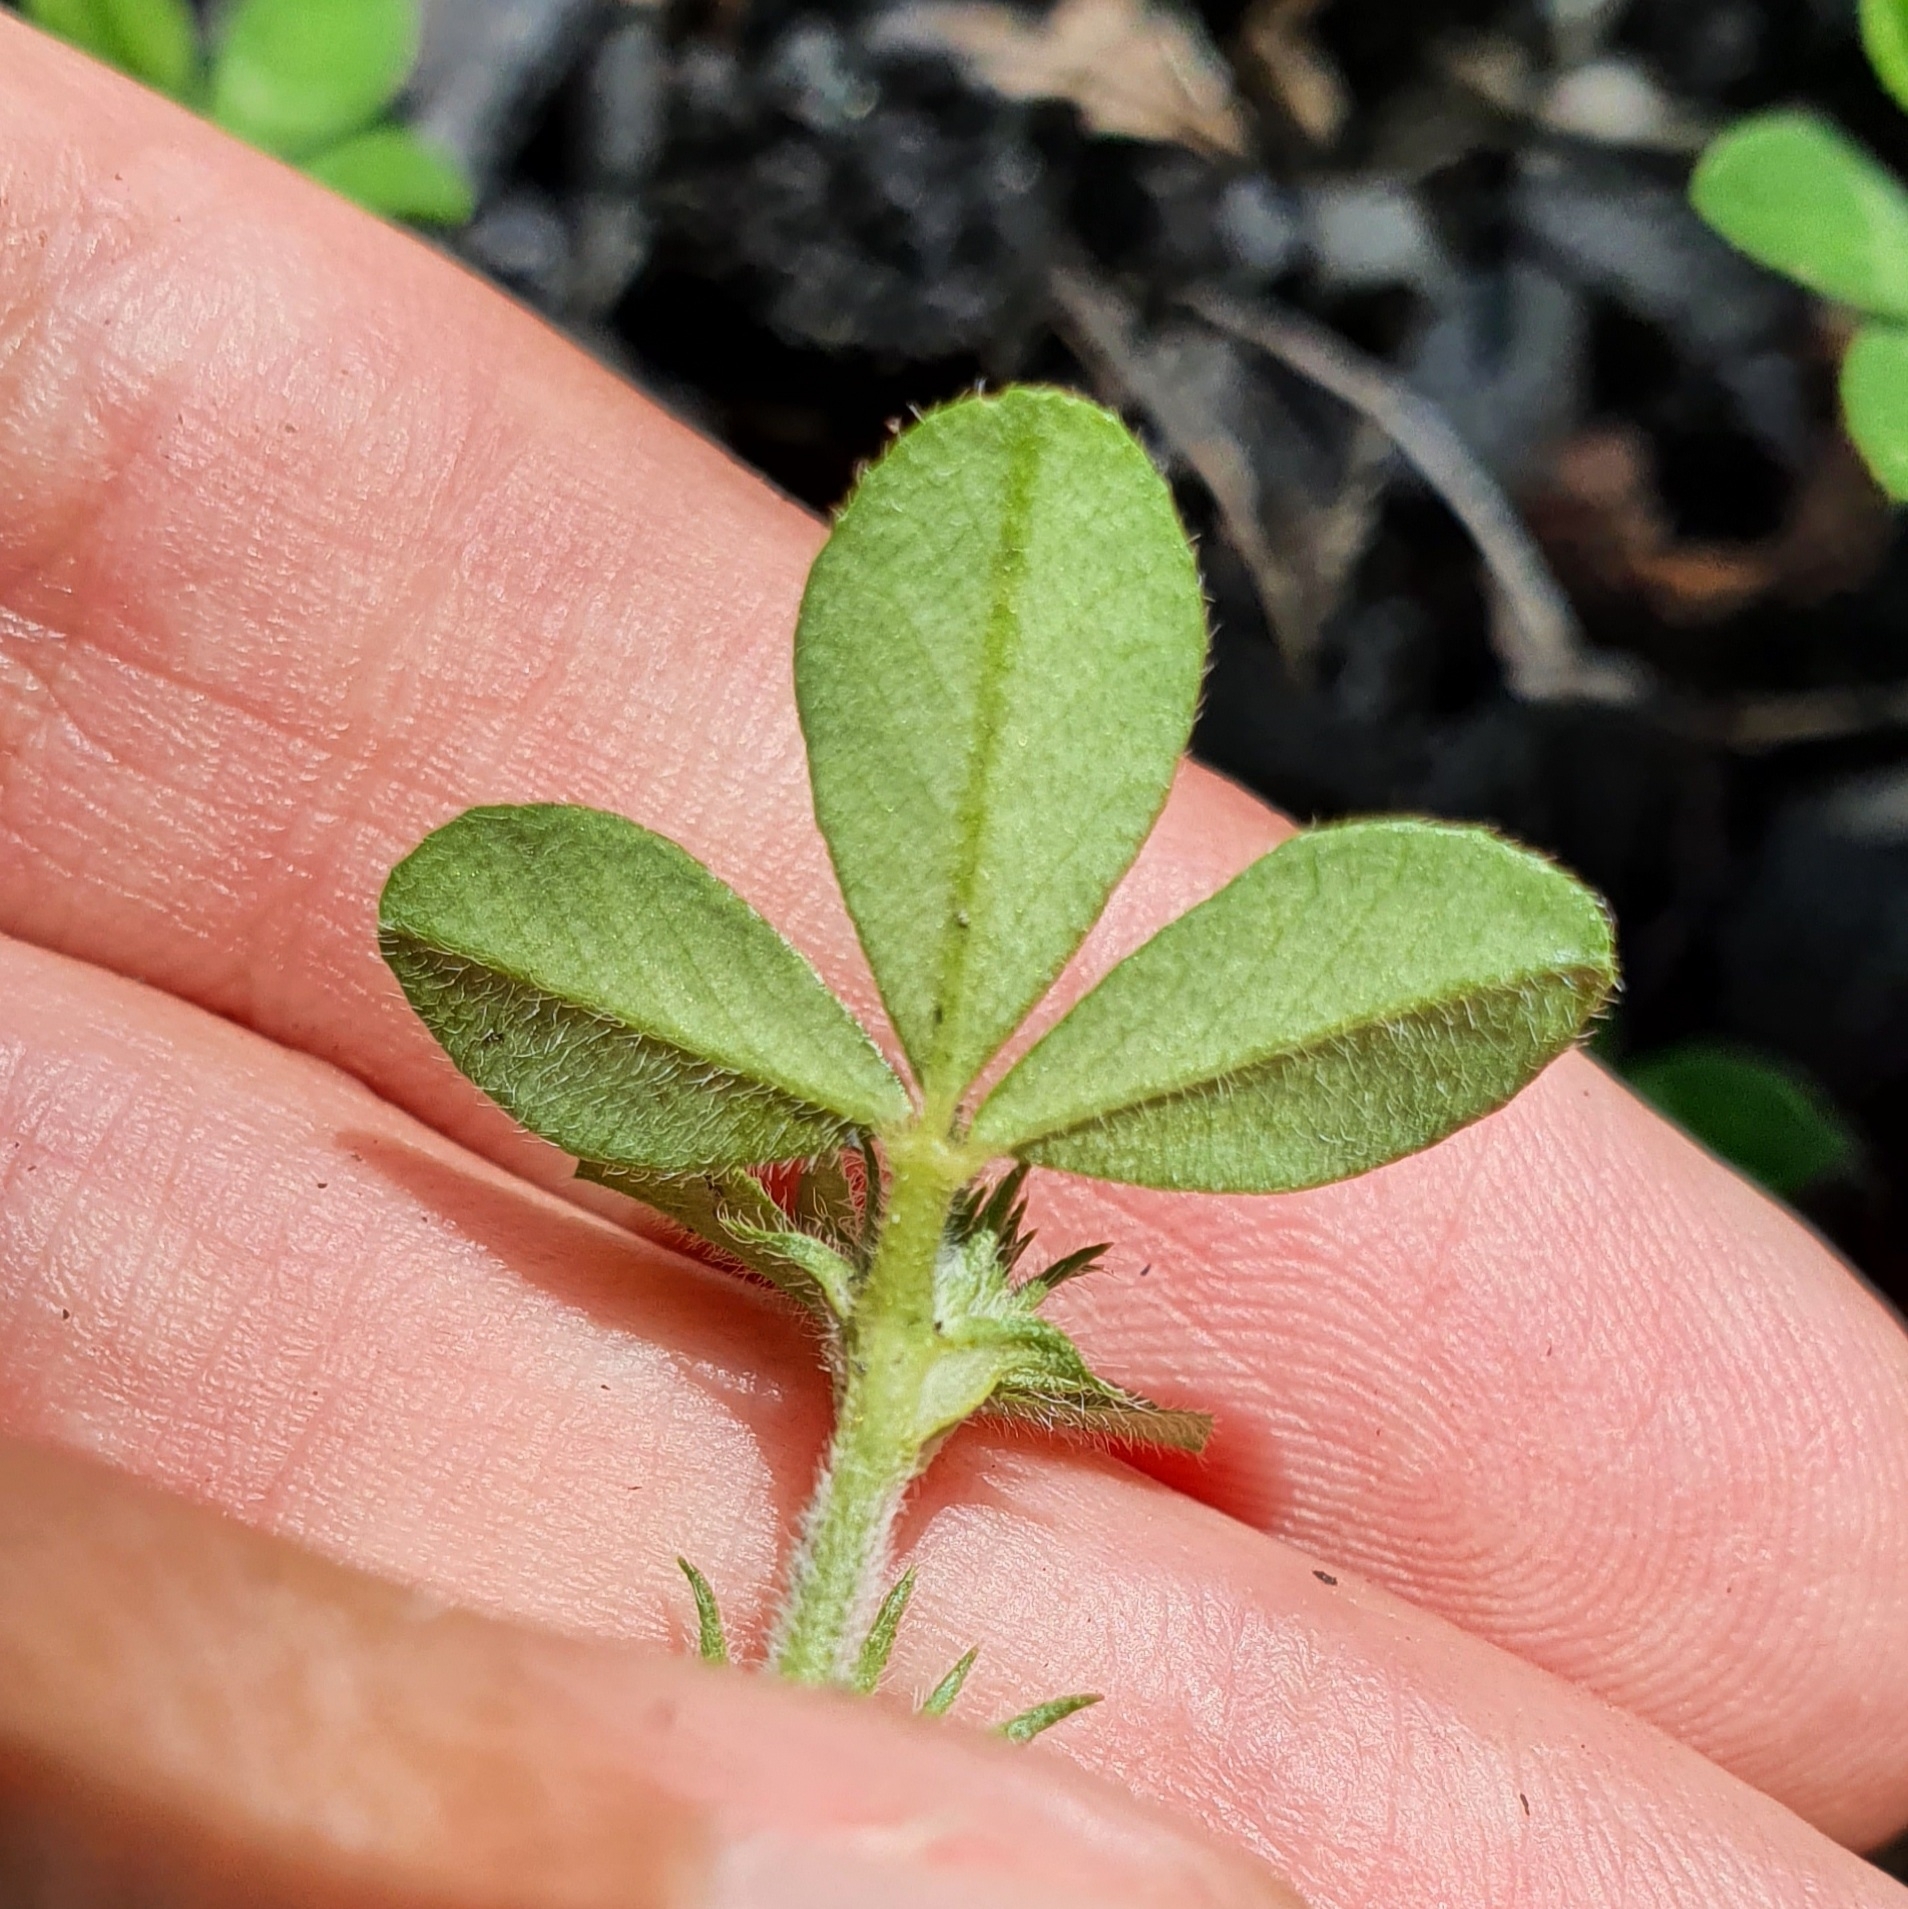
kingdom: Plantae
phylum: Tracheophyta
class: Magnoliopsida
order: Fabales
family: Fabaceae
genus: Trifolium
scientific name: Trifolium scabrum
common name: Rough clover
